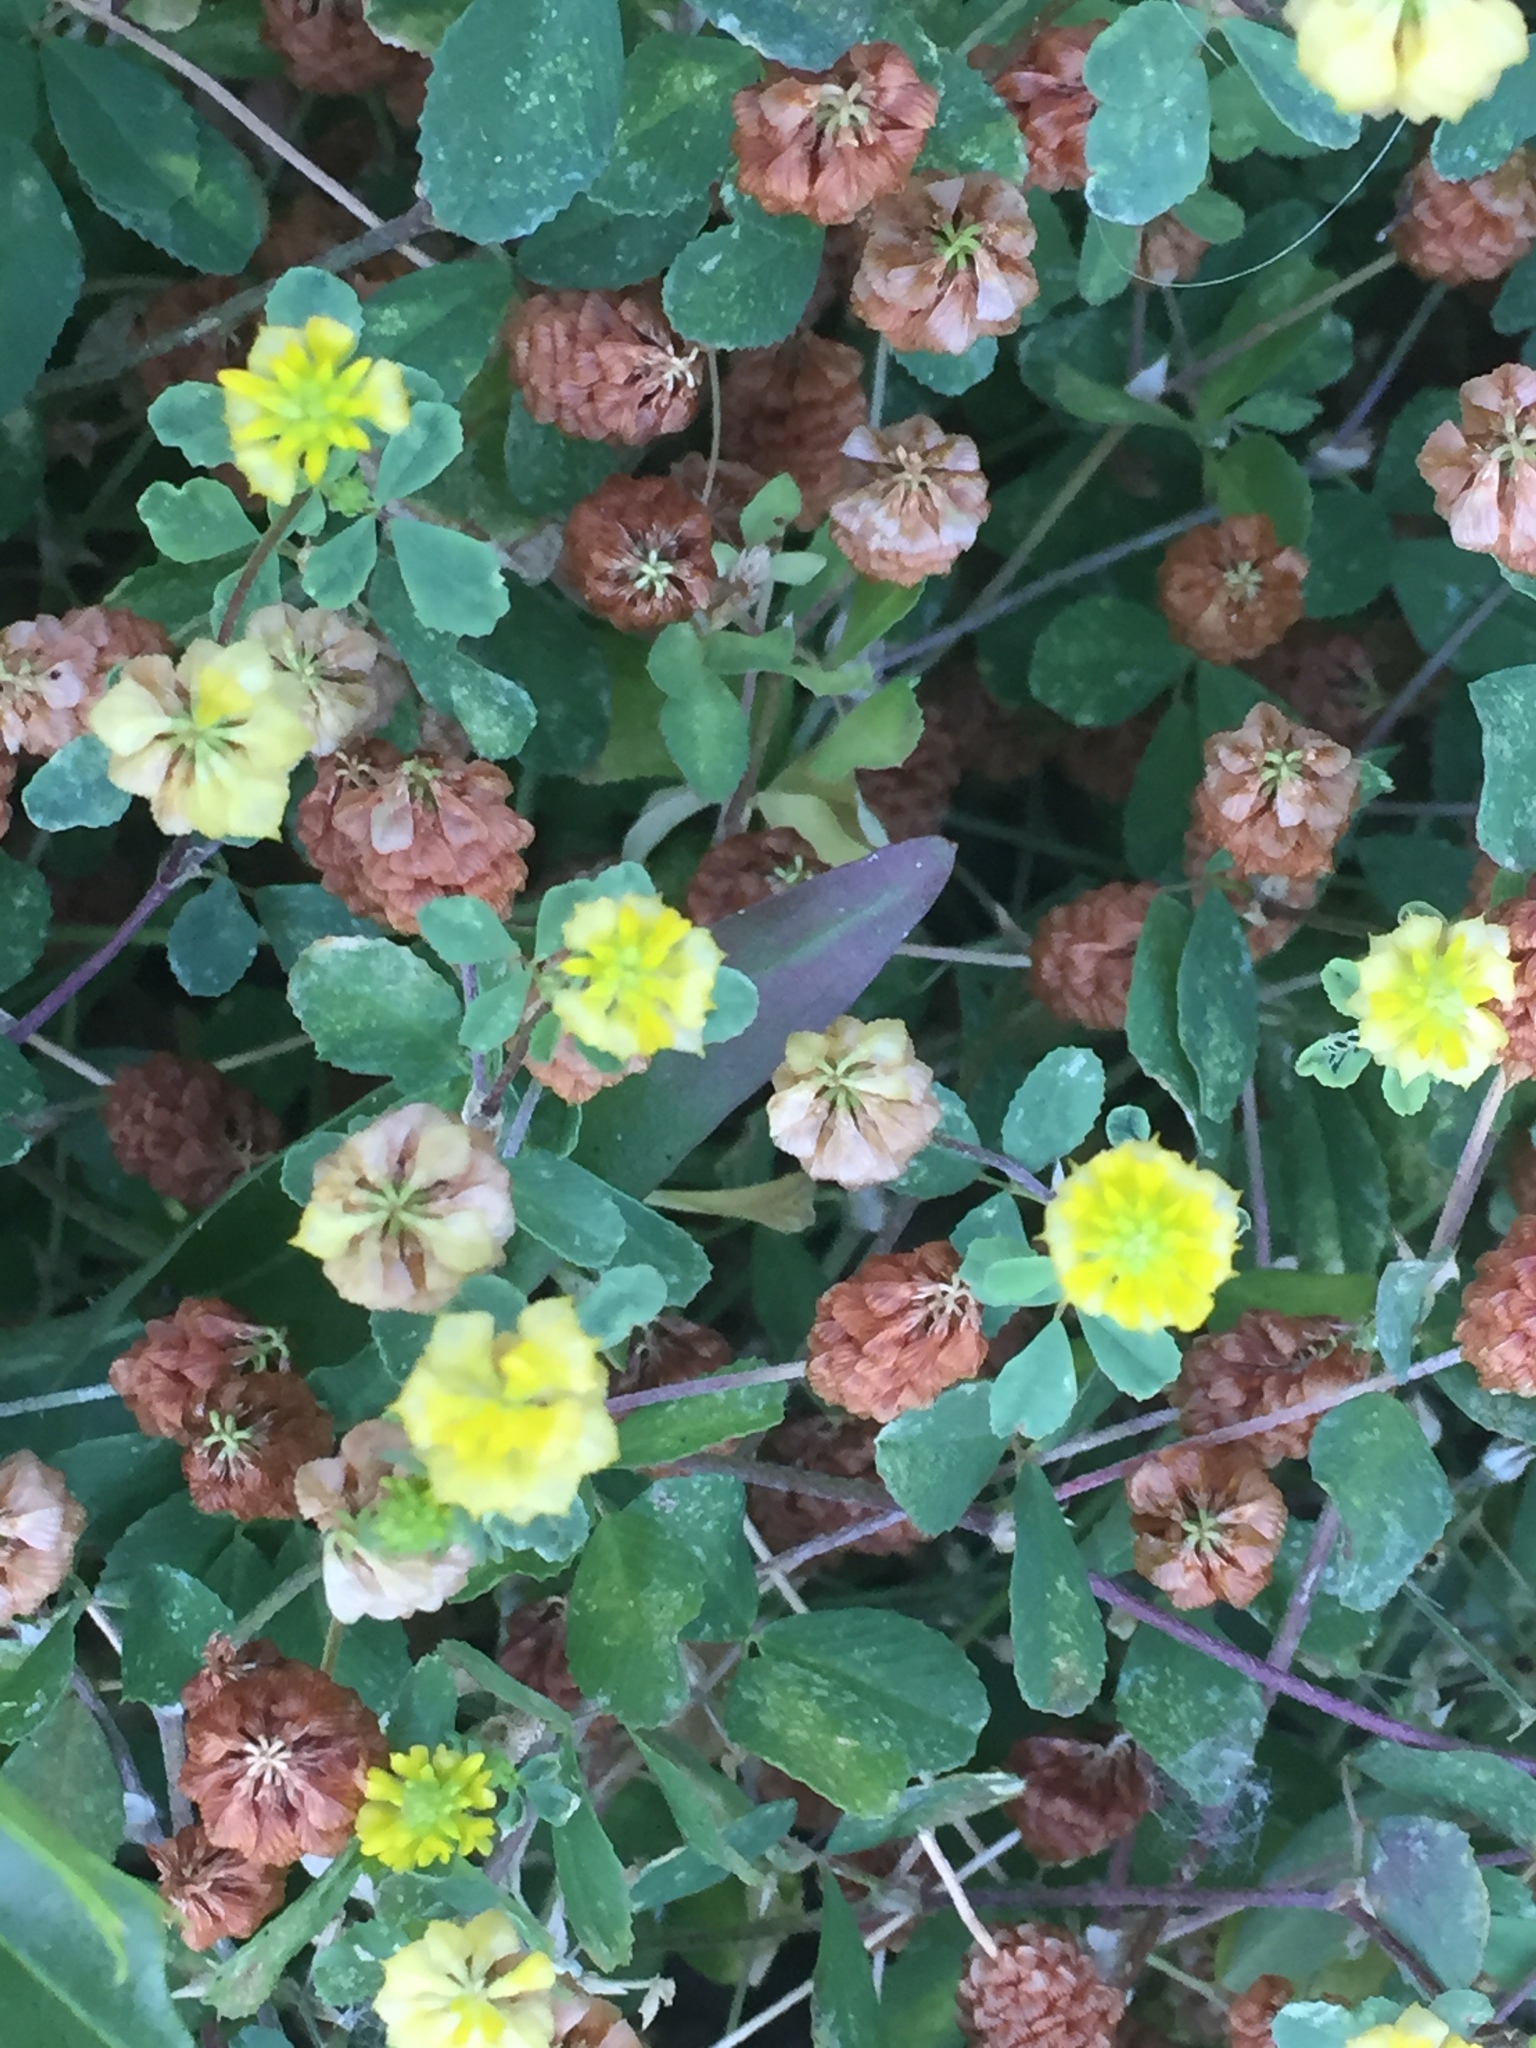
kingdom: Plantae
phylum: Tracheophyta
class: Magnoliopsida
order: Fabales
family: Fabaceae
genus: Trifolium
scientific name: Trifolium campestre
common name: Field clover
